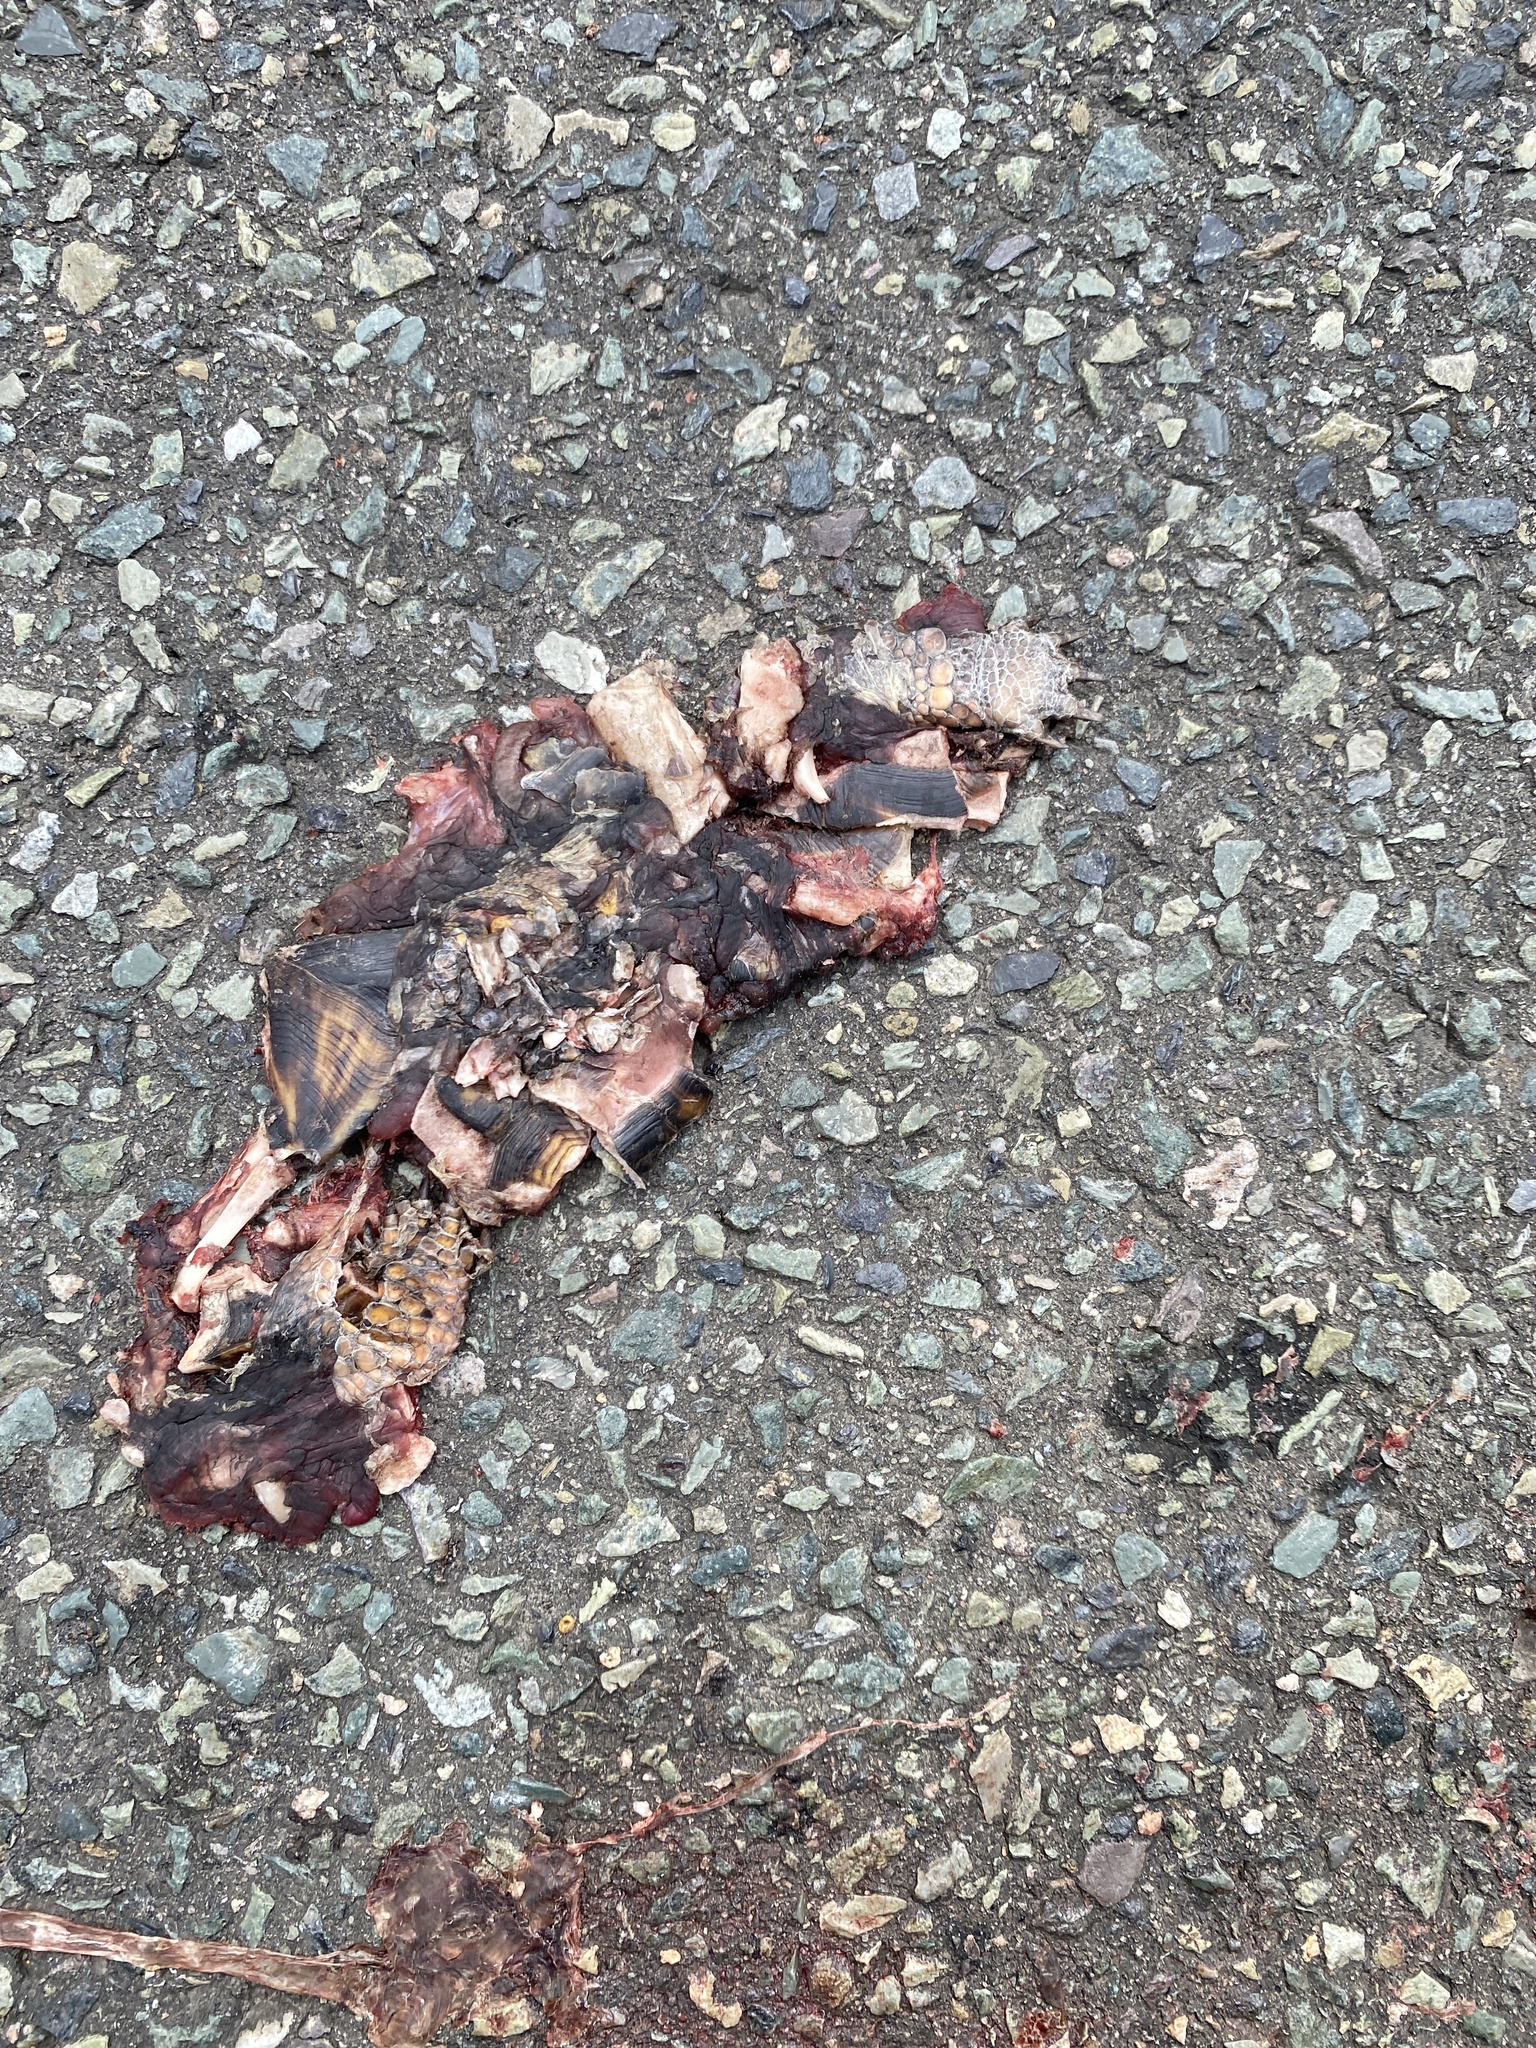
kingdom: Animalia
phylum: Chordata
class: Testudines
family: Emydidae
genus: Terrapene
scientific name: Terrapene carolina
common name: Common box turtle
